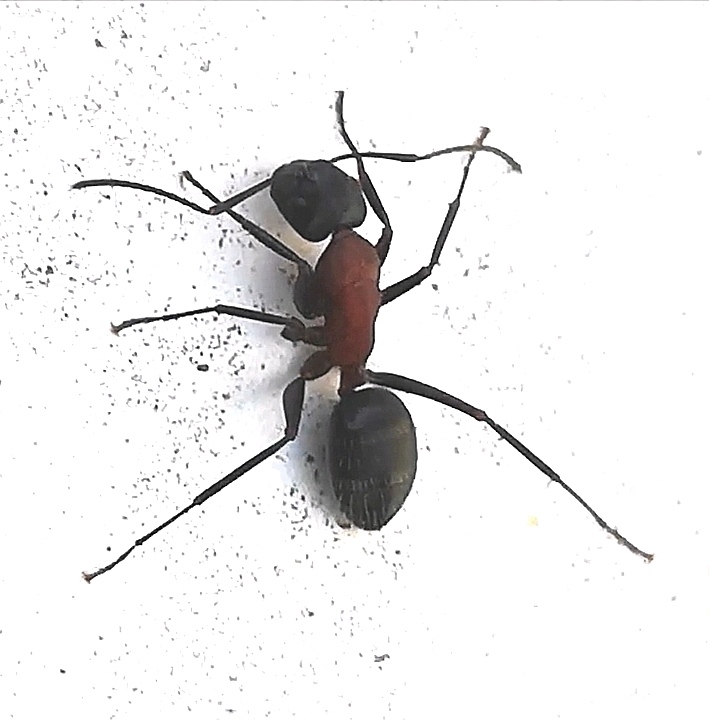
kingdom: Animalia
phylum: Arthropoda
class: Insecta
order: Hymenoptera
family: Formicidae
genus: Camponotus
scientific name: Camponotus herculeanus
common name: Hercules ant
